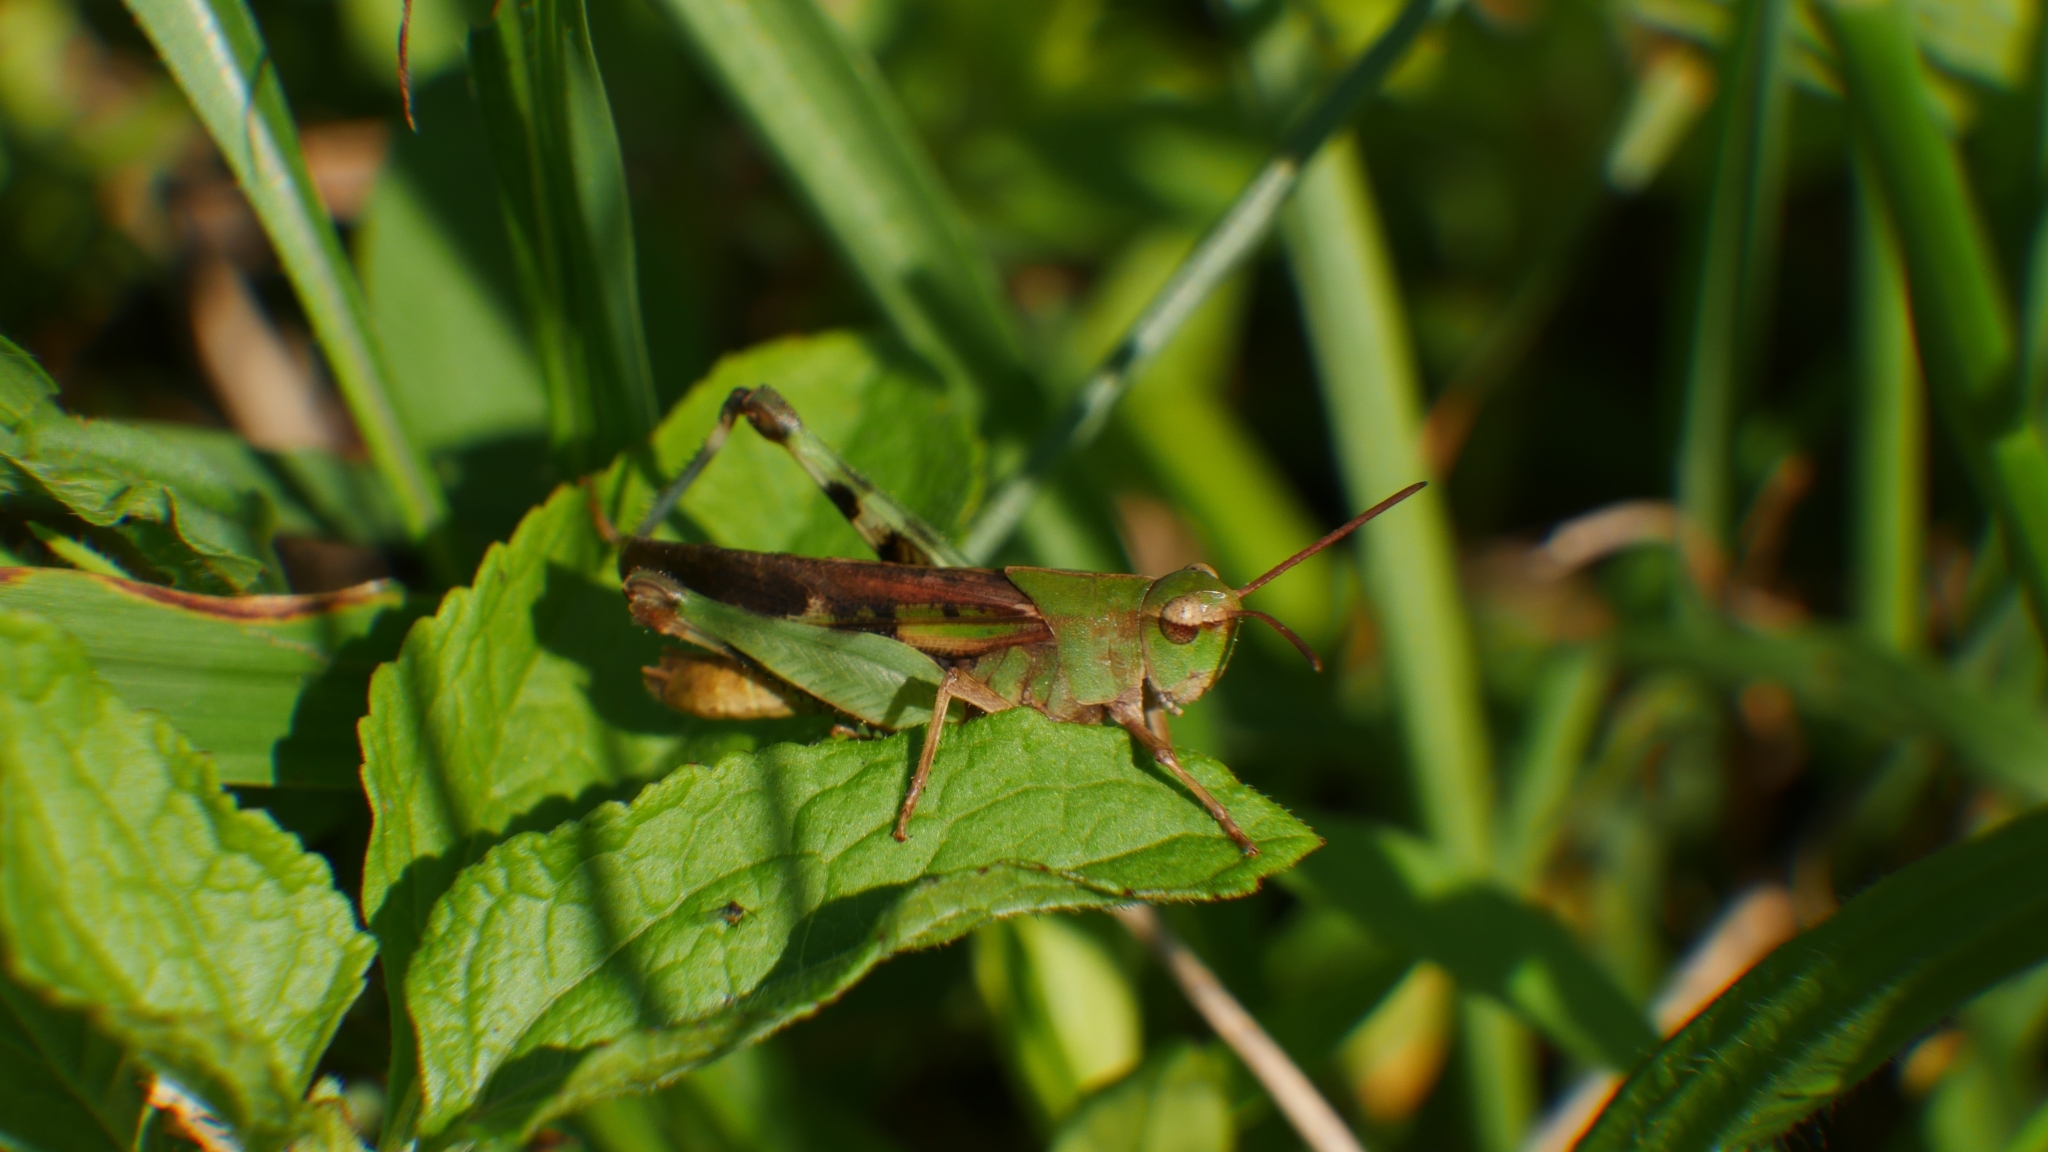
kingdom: Animalia
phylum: Arthropoda
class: Insecta
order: Orthoptera
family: Acrididae
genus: Chortophaga
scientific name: Chortophaga viridifasciata
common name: Green-striped grasshopper
